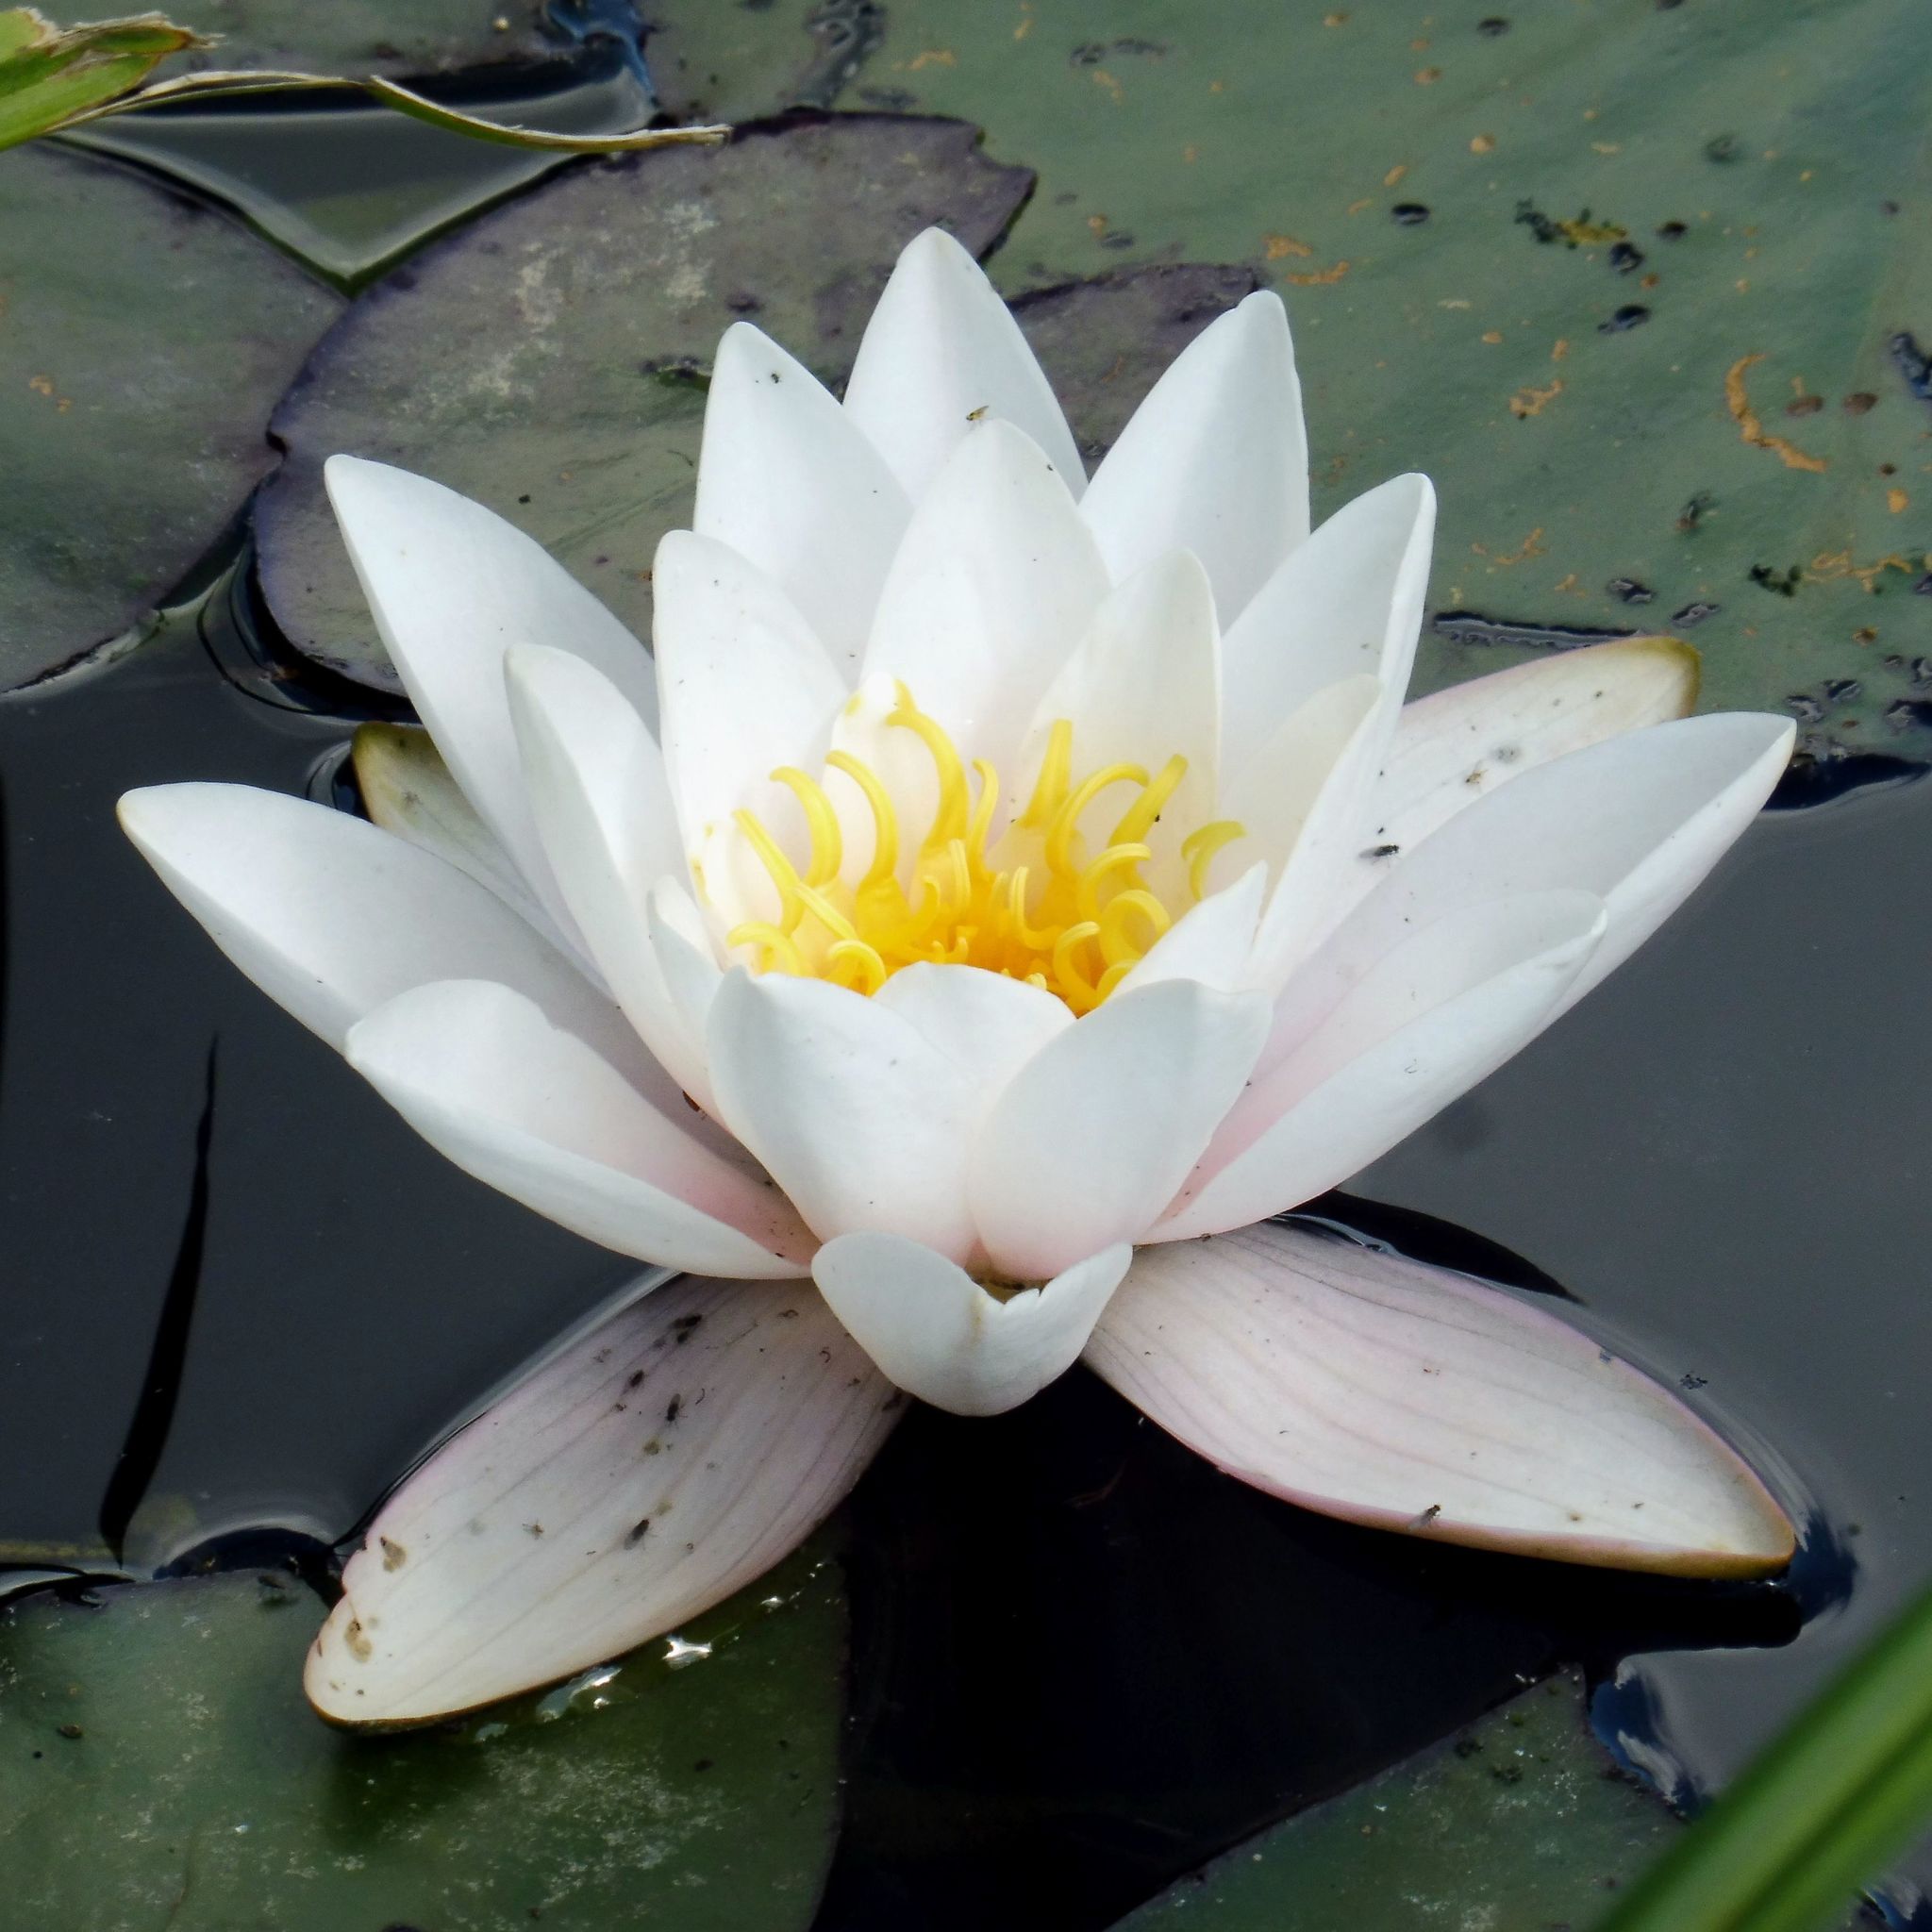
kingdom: Plantae
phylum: Tracheophyta
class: Magnoliopsida
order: Nymphaeales
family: Nymphaeaceae
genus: Nymphaea
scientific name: Nymphaea alba
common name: White water-lily
